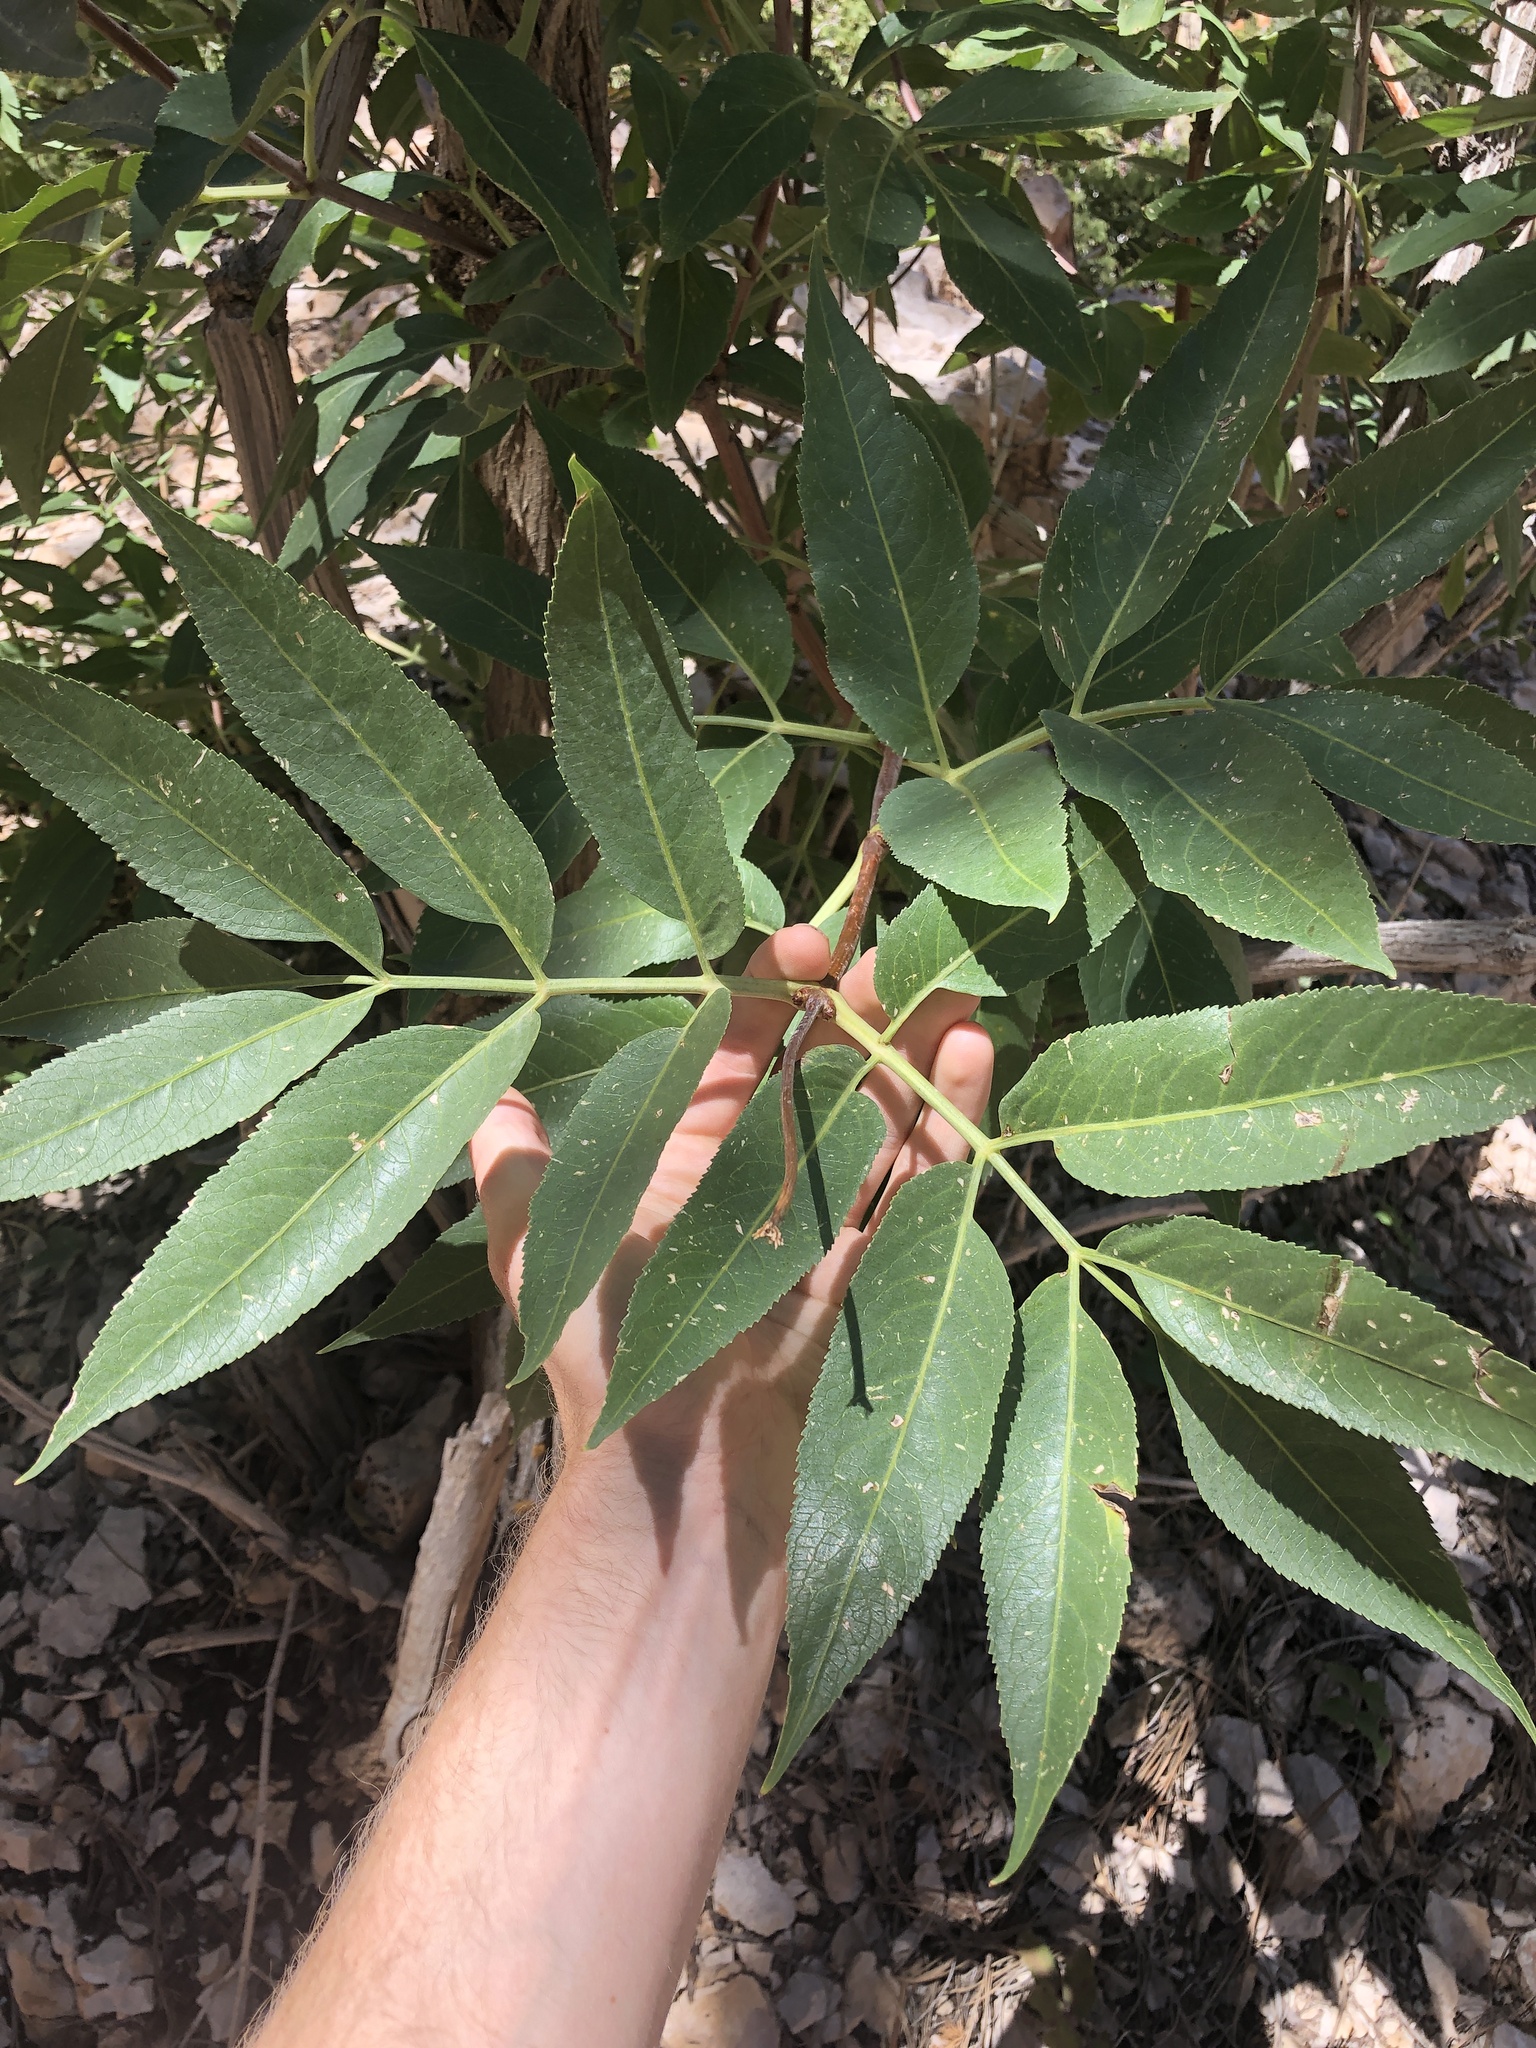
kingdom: Plantae
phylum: Tracheophyta
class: Magnoliopsida
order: Dipsacales
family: Viburnaceae
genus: Sambucus
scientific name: Sambucus cerulea
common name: Blue elder
